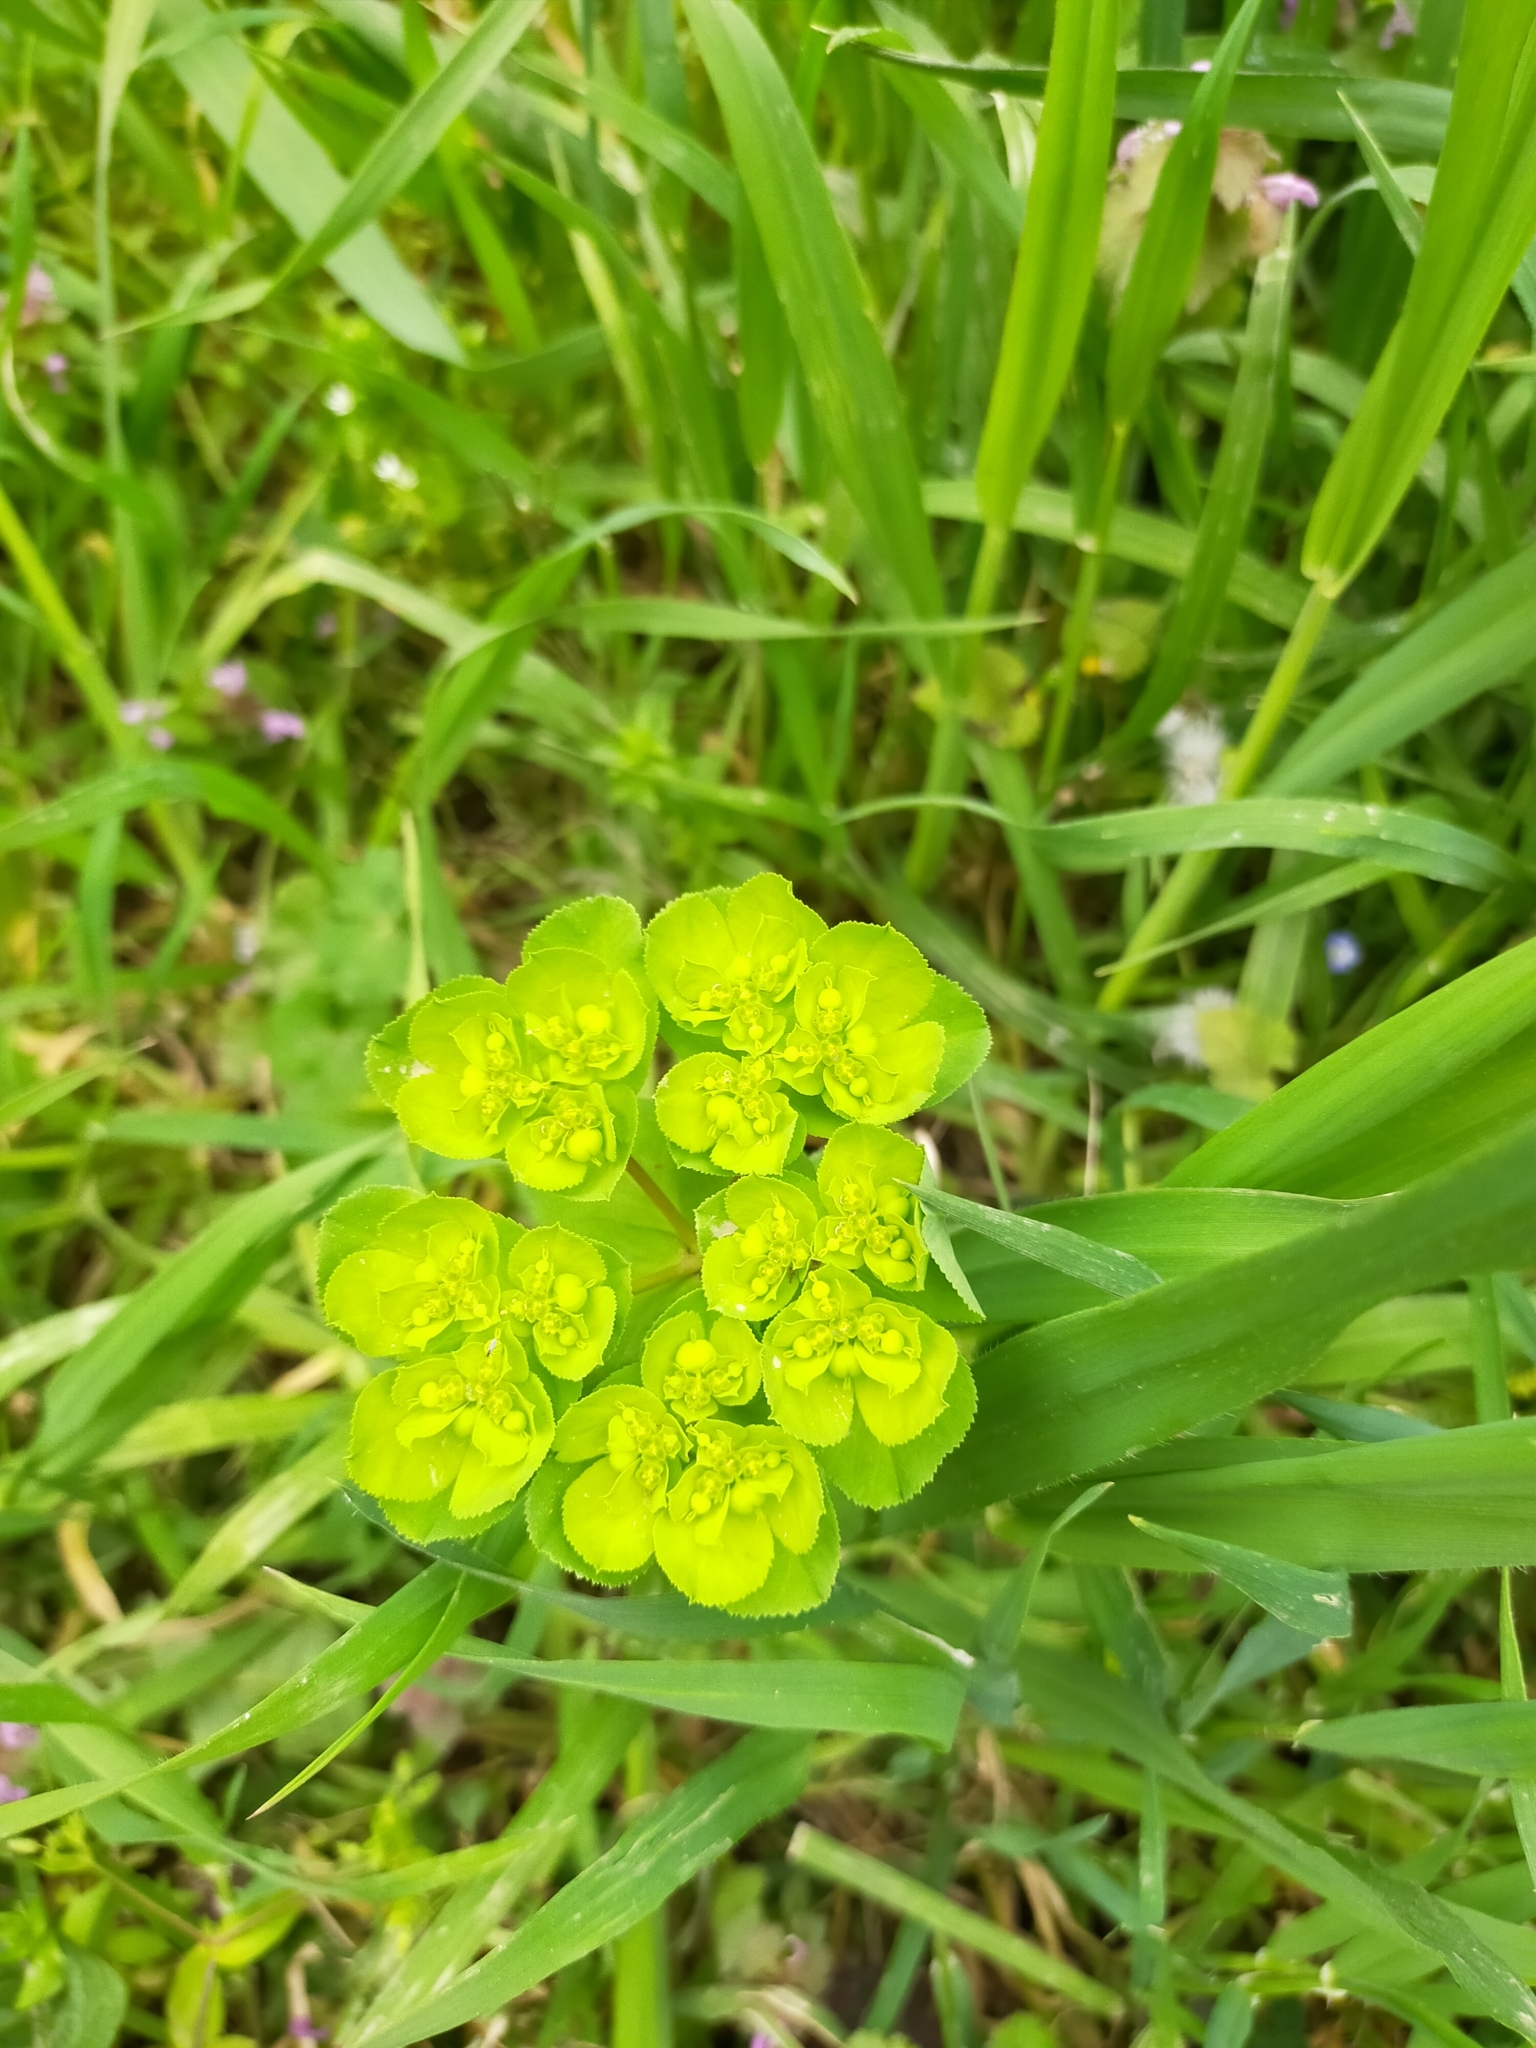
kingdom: Plantae
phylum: Tracheophyta
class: Magnoliopsida
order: Malpighiales
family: Euphorbiaceae
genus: Euphorbia
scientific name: Euphorbia helioscopia
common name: Sun spurge
